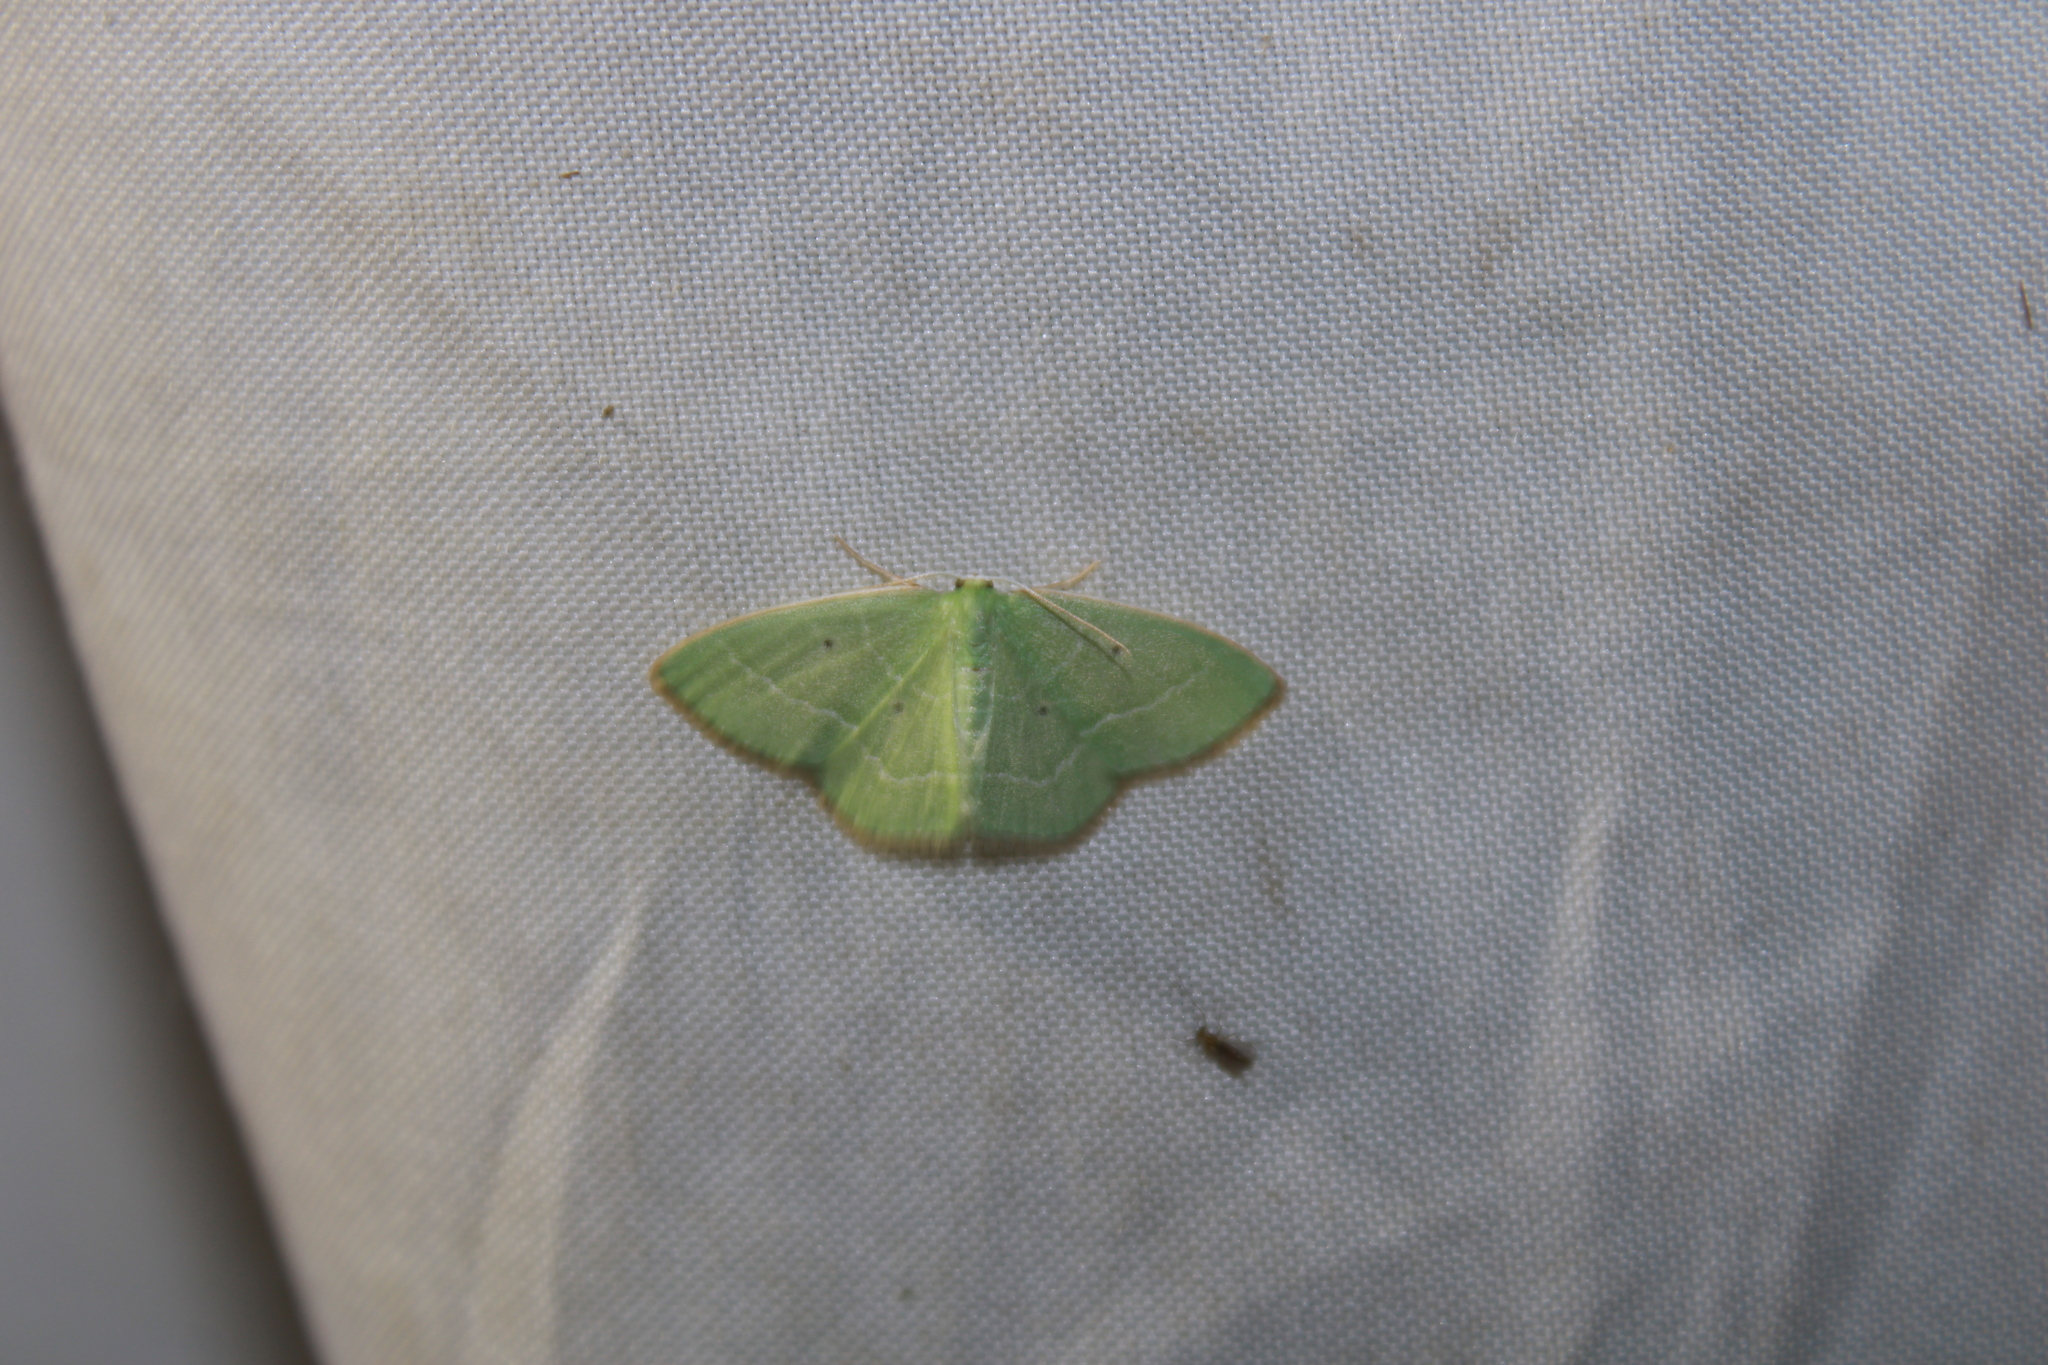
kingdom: Animalia
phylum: Arthropoda
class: Insecta
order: Lepidoptera
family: Geometridae
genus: Nemoria
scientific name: Nemoria extremaria
